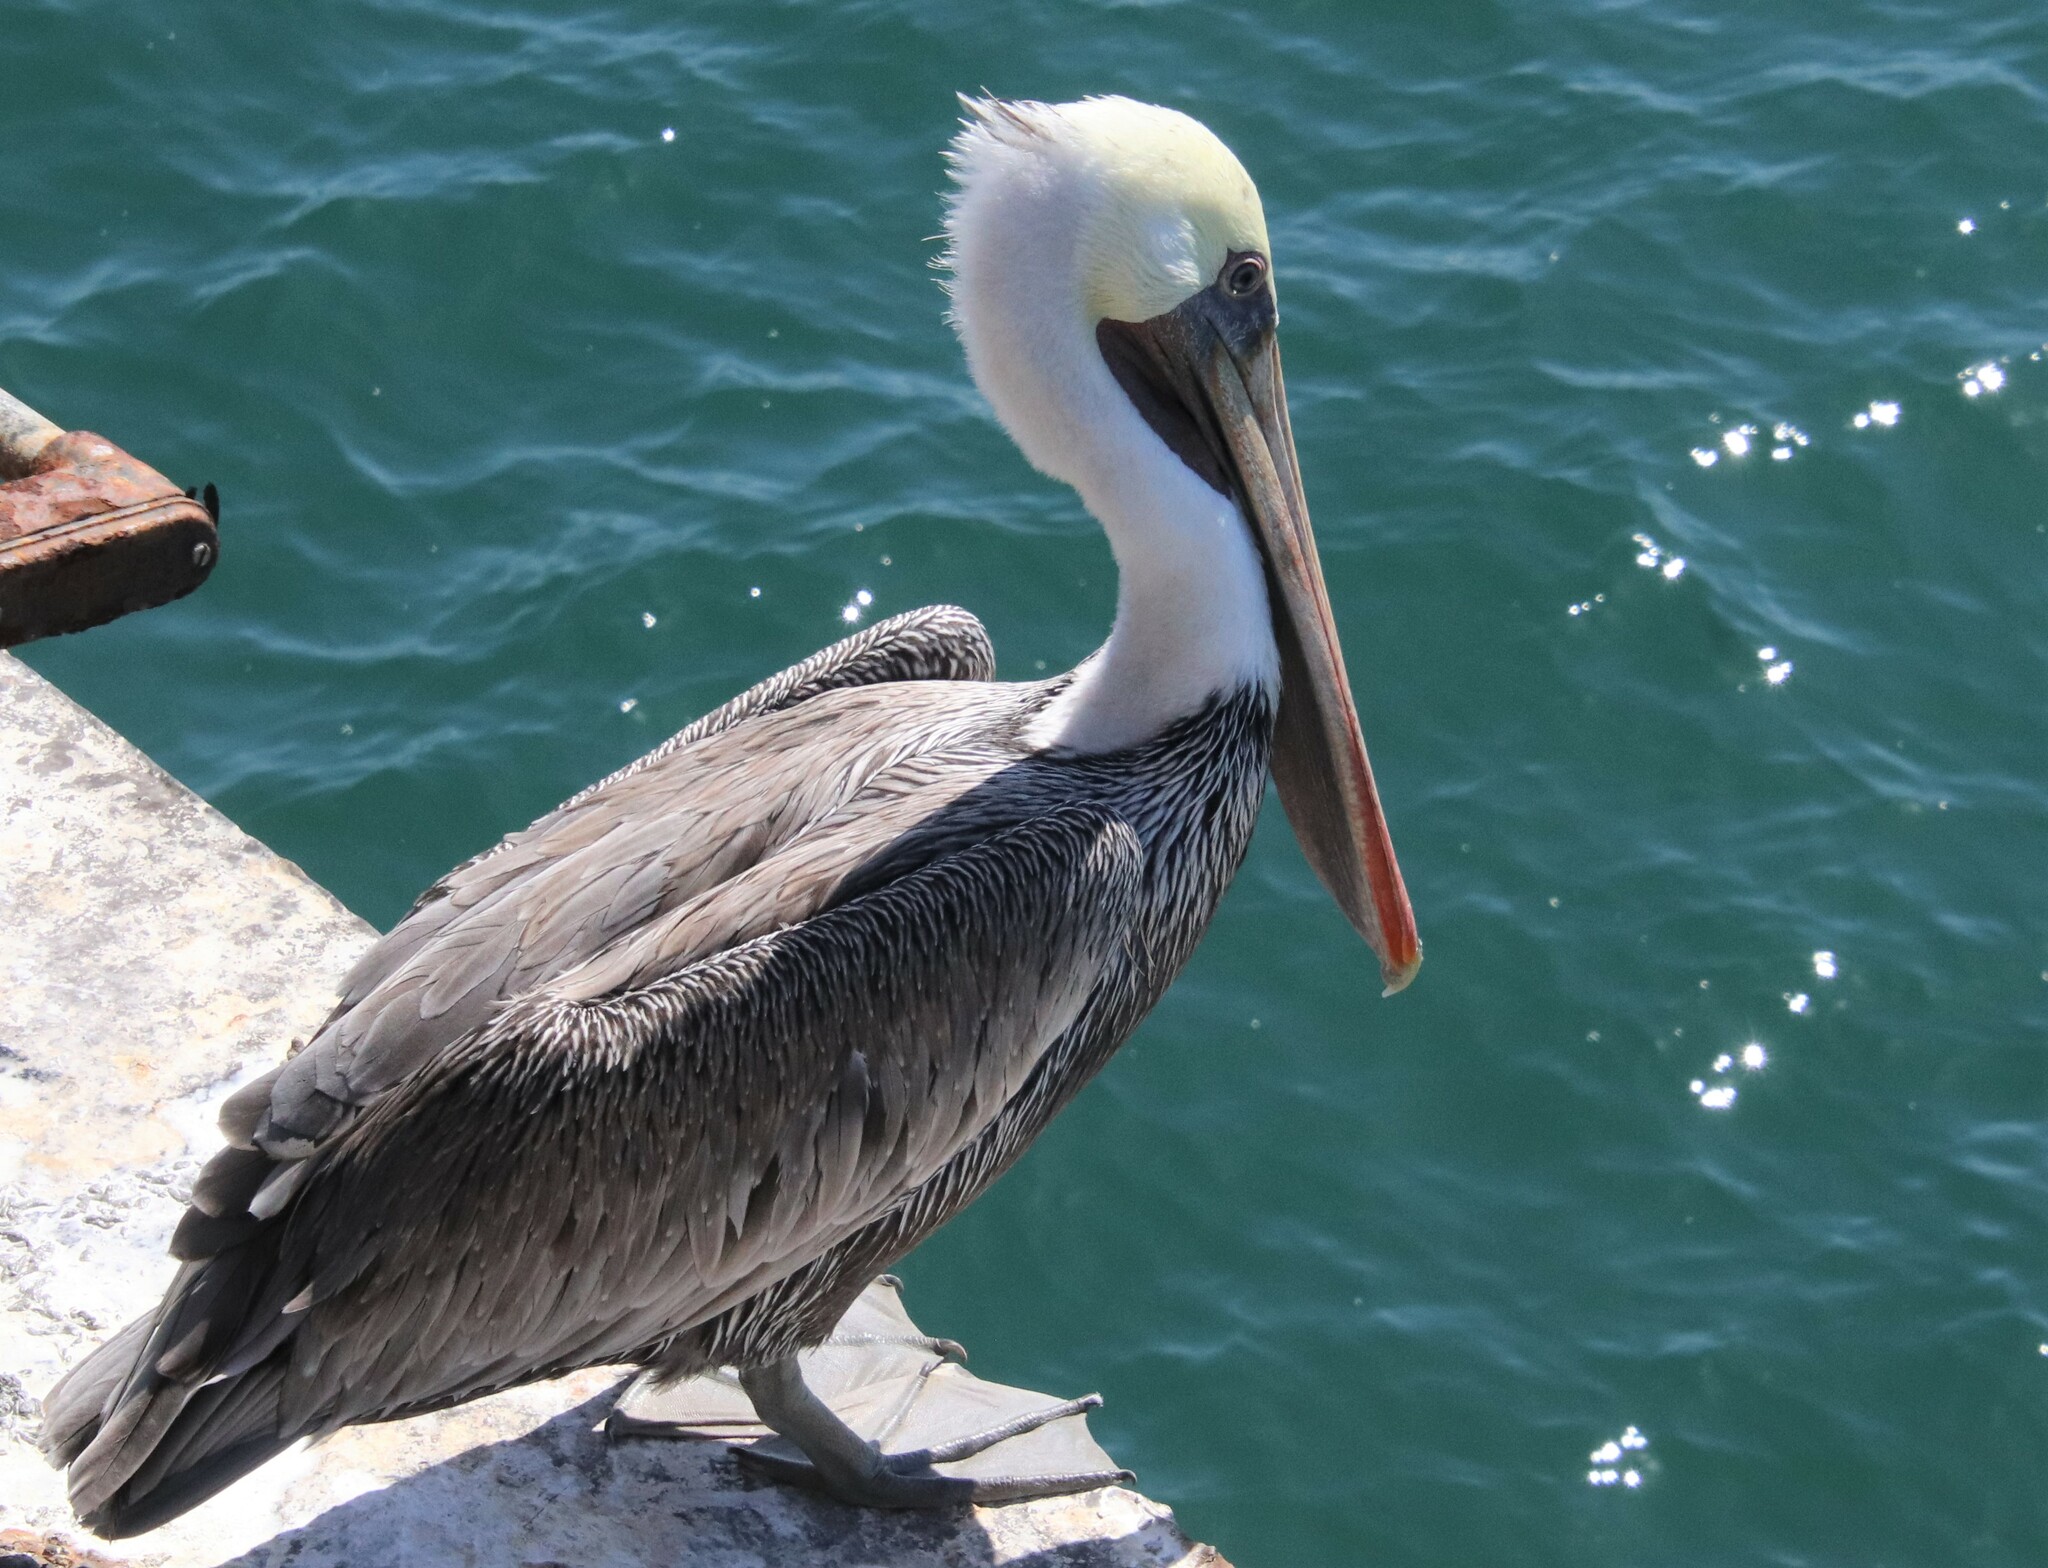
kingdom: Animalia
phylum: Chordata
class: Aves
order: Pelecaniformes
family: Pelecanidae
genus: Pelecanus
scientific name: Pelecanus occidentalis
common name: Brown pelican
